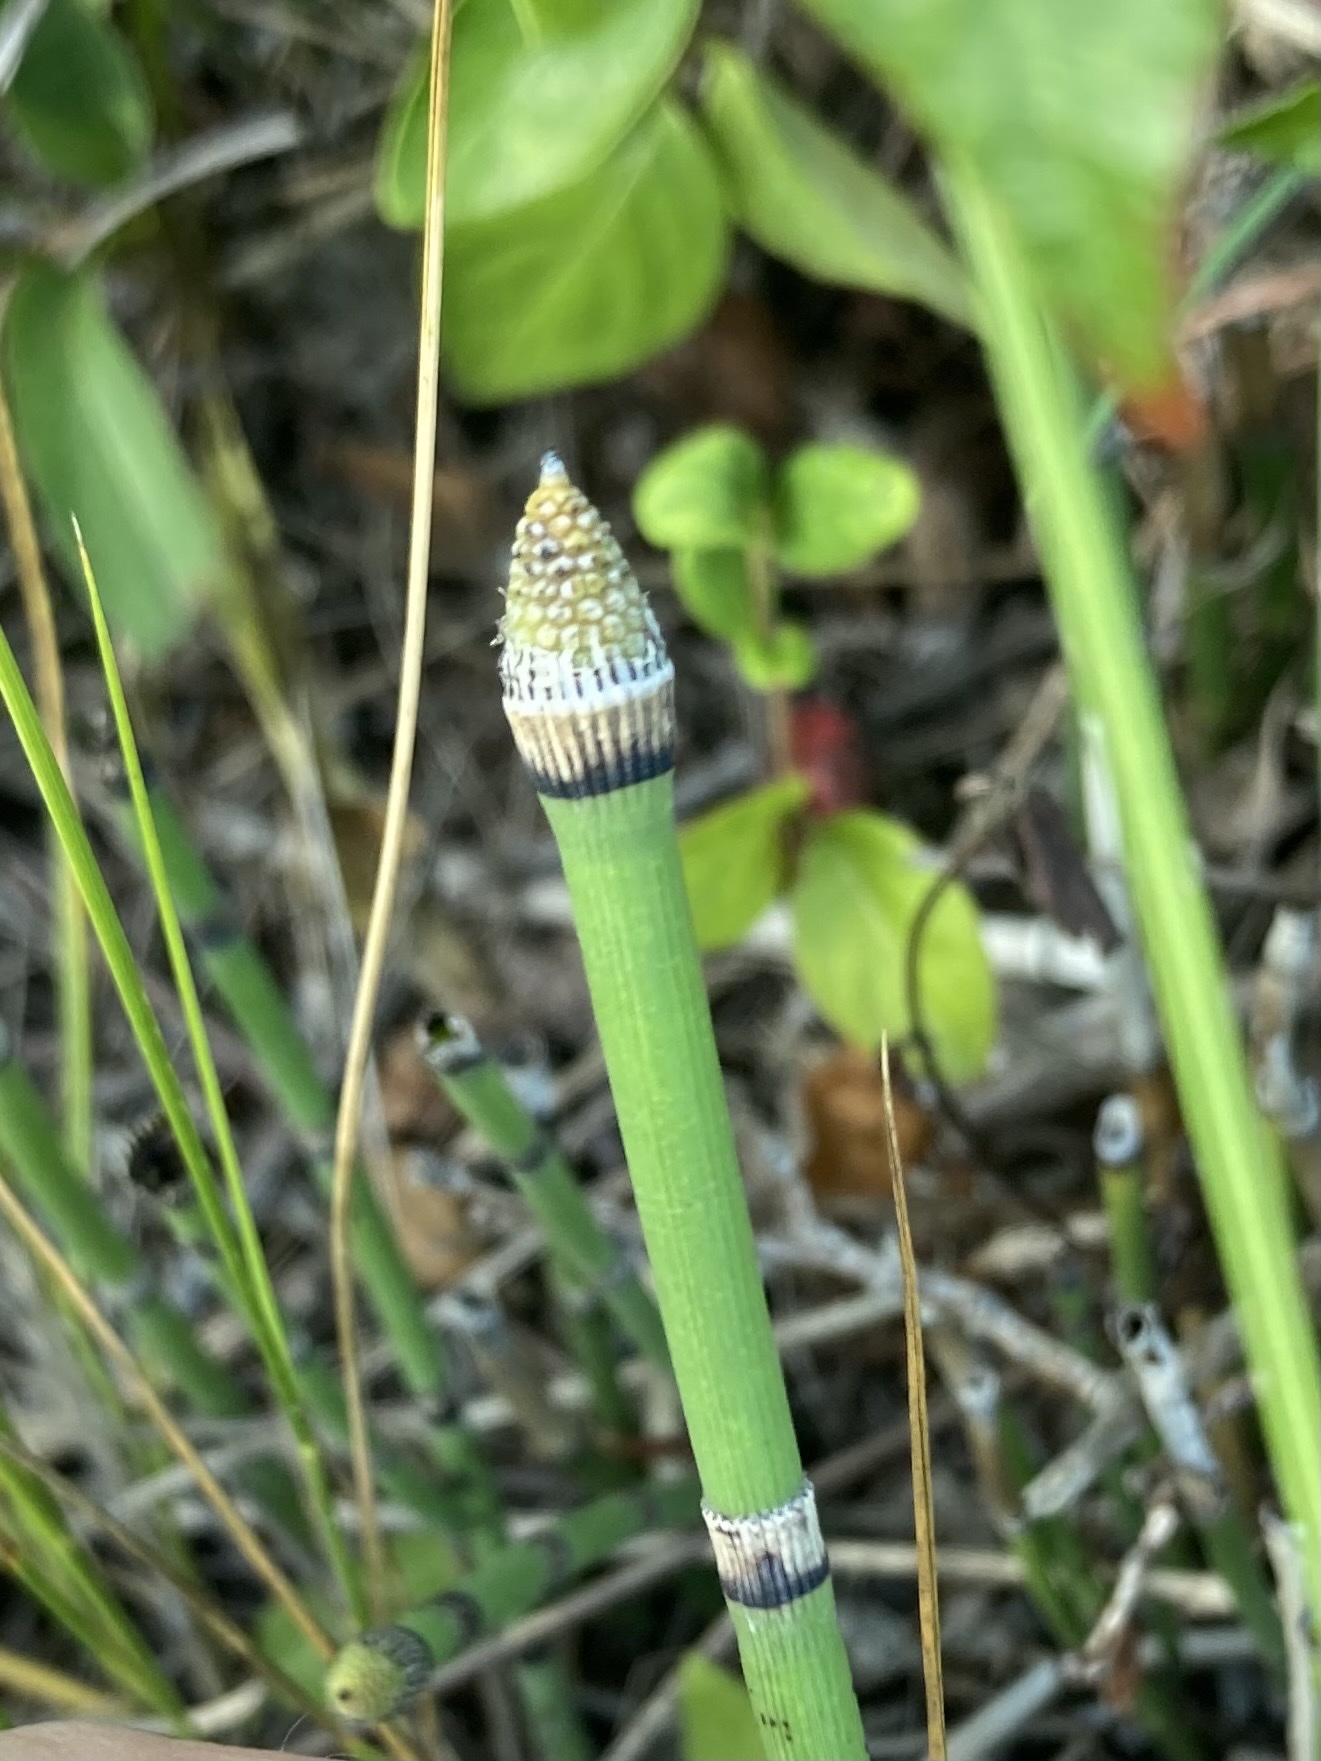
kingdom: Plantae
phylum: Tracheophyta
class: Polypodiopsida
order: Equisetales
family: Equisetaceae
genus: Equisetum
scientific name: Equisetum hyemale
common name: Rough horsetail
